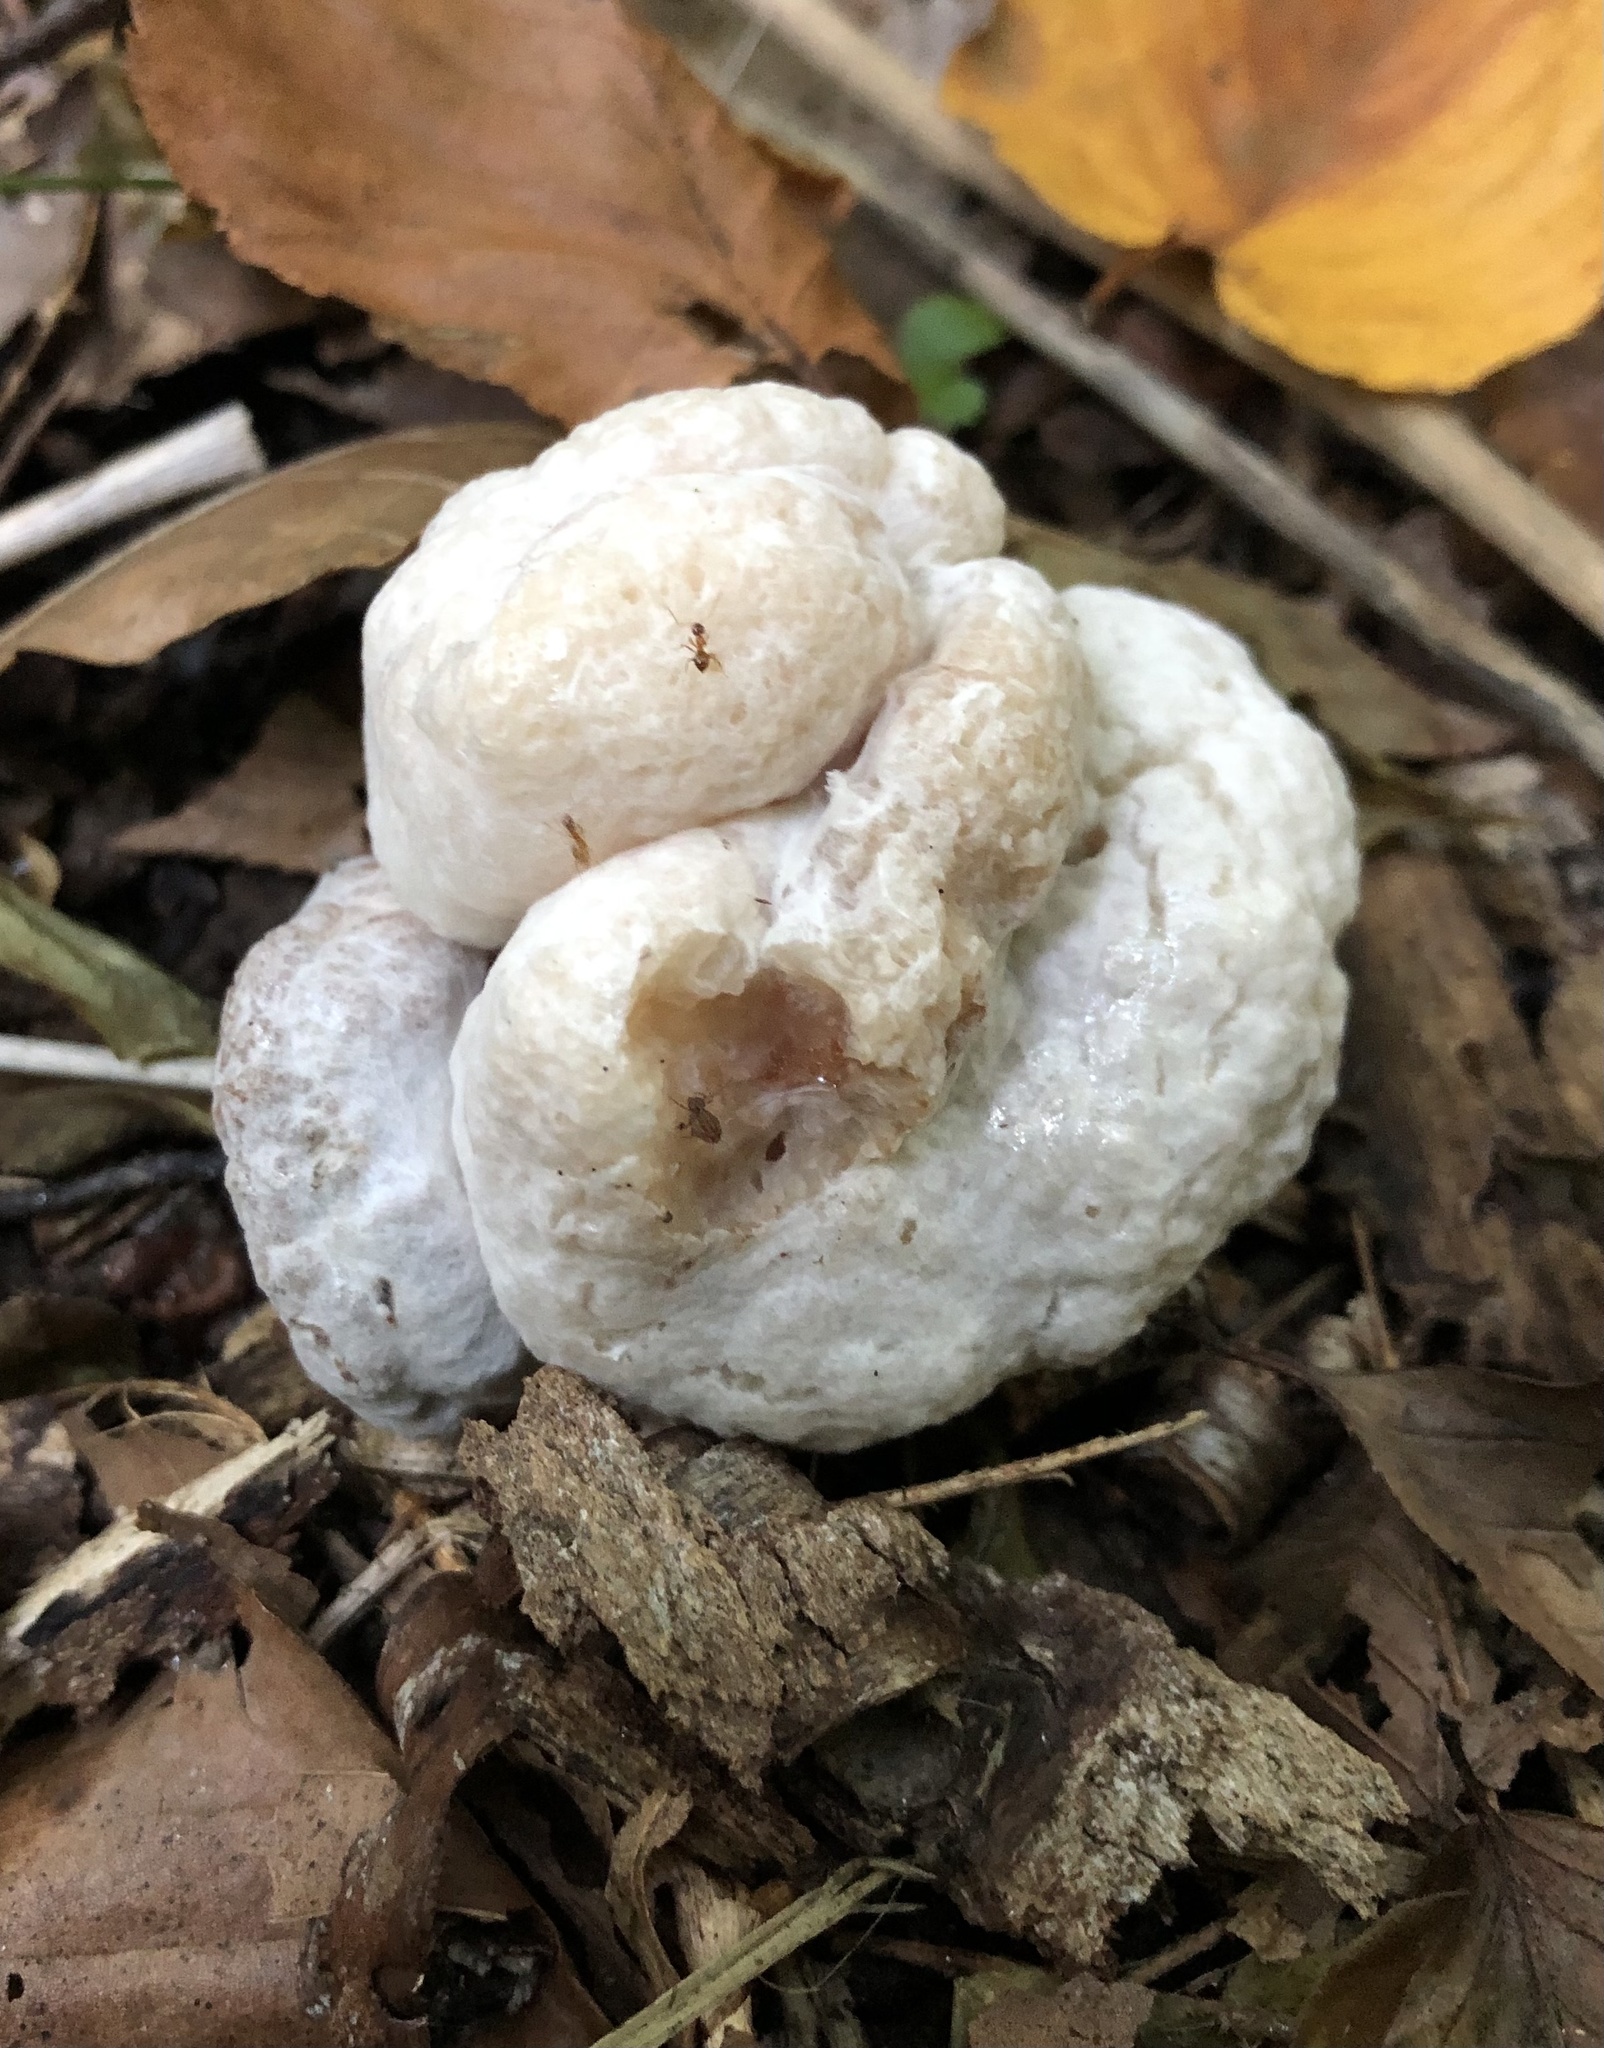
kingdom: Fungi
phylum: Basidiomycota
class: Agaricomycetes
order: Agaricales
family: Entolomataceae
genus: Entoloma
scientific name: Entoloma abortivum
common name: Aborted entoloma
